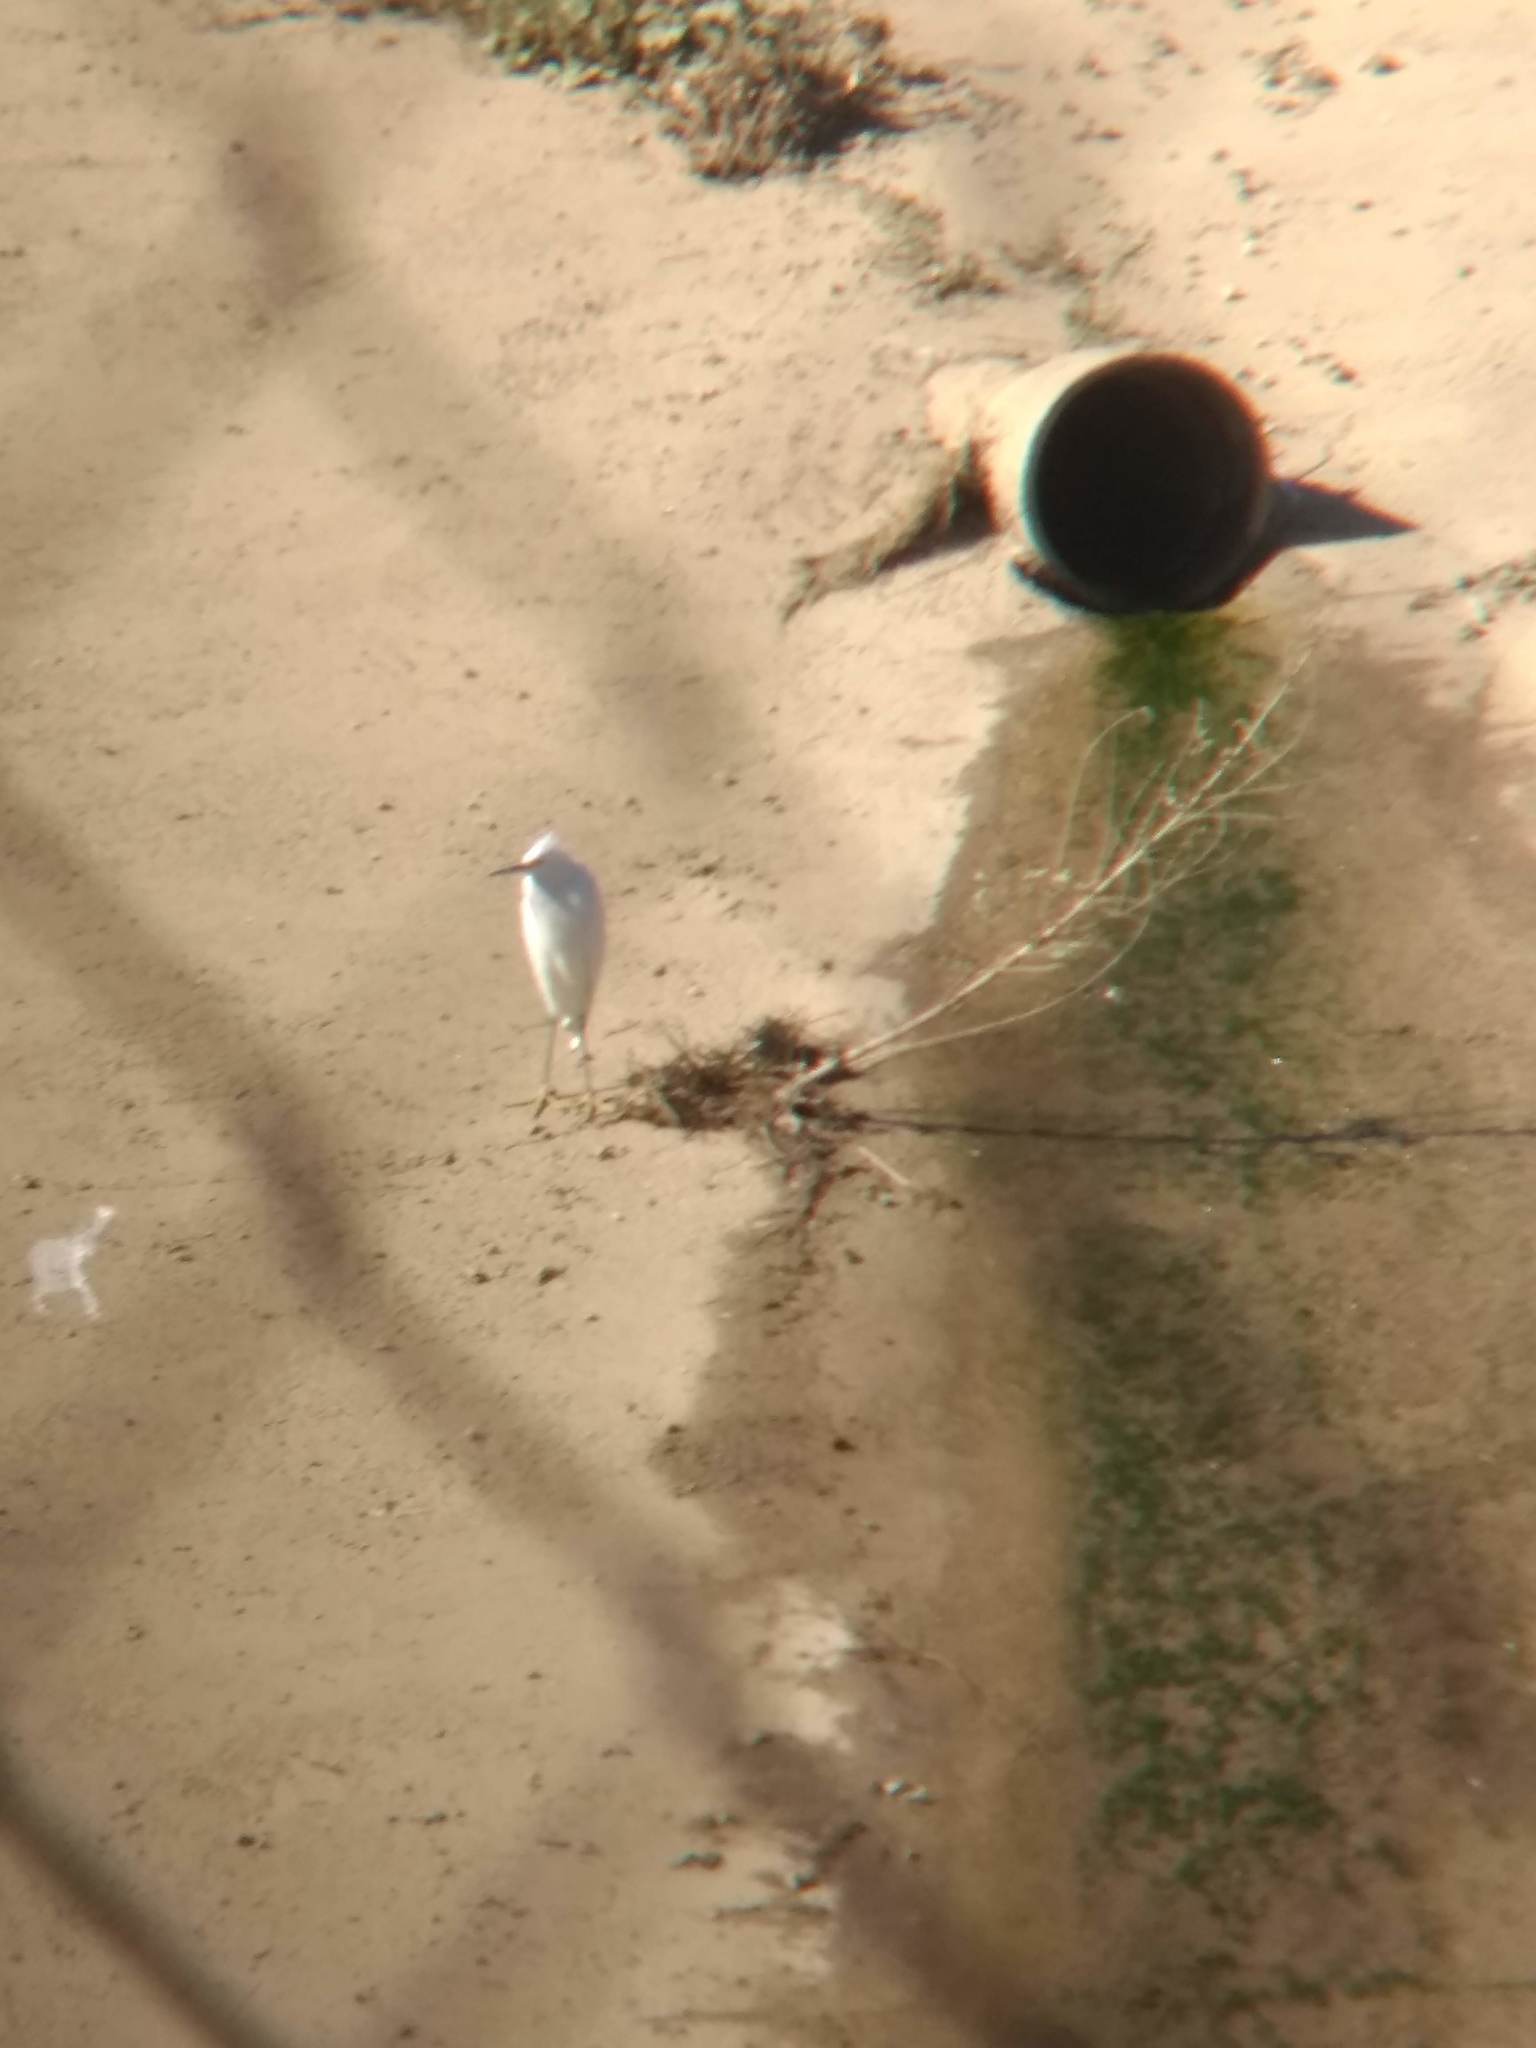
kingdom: Animalia
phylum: Chordata
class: Aves
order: Pelecaniformes
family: Ardeidae
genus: Egretta
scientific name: Egretta thula
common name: Snowy egret
